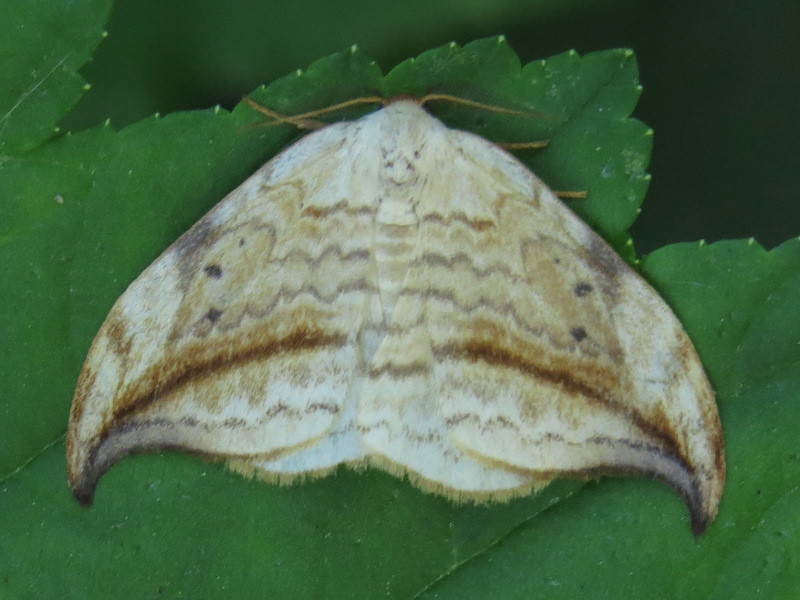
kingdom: Animalia
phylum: Arthropoda
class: Insecta
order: Lepidoptera
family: Drepanidae
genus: Drepana
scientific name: Drepana arcuata
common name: Arched hooktip moth
